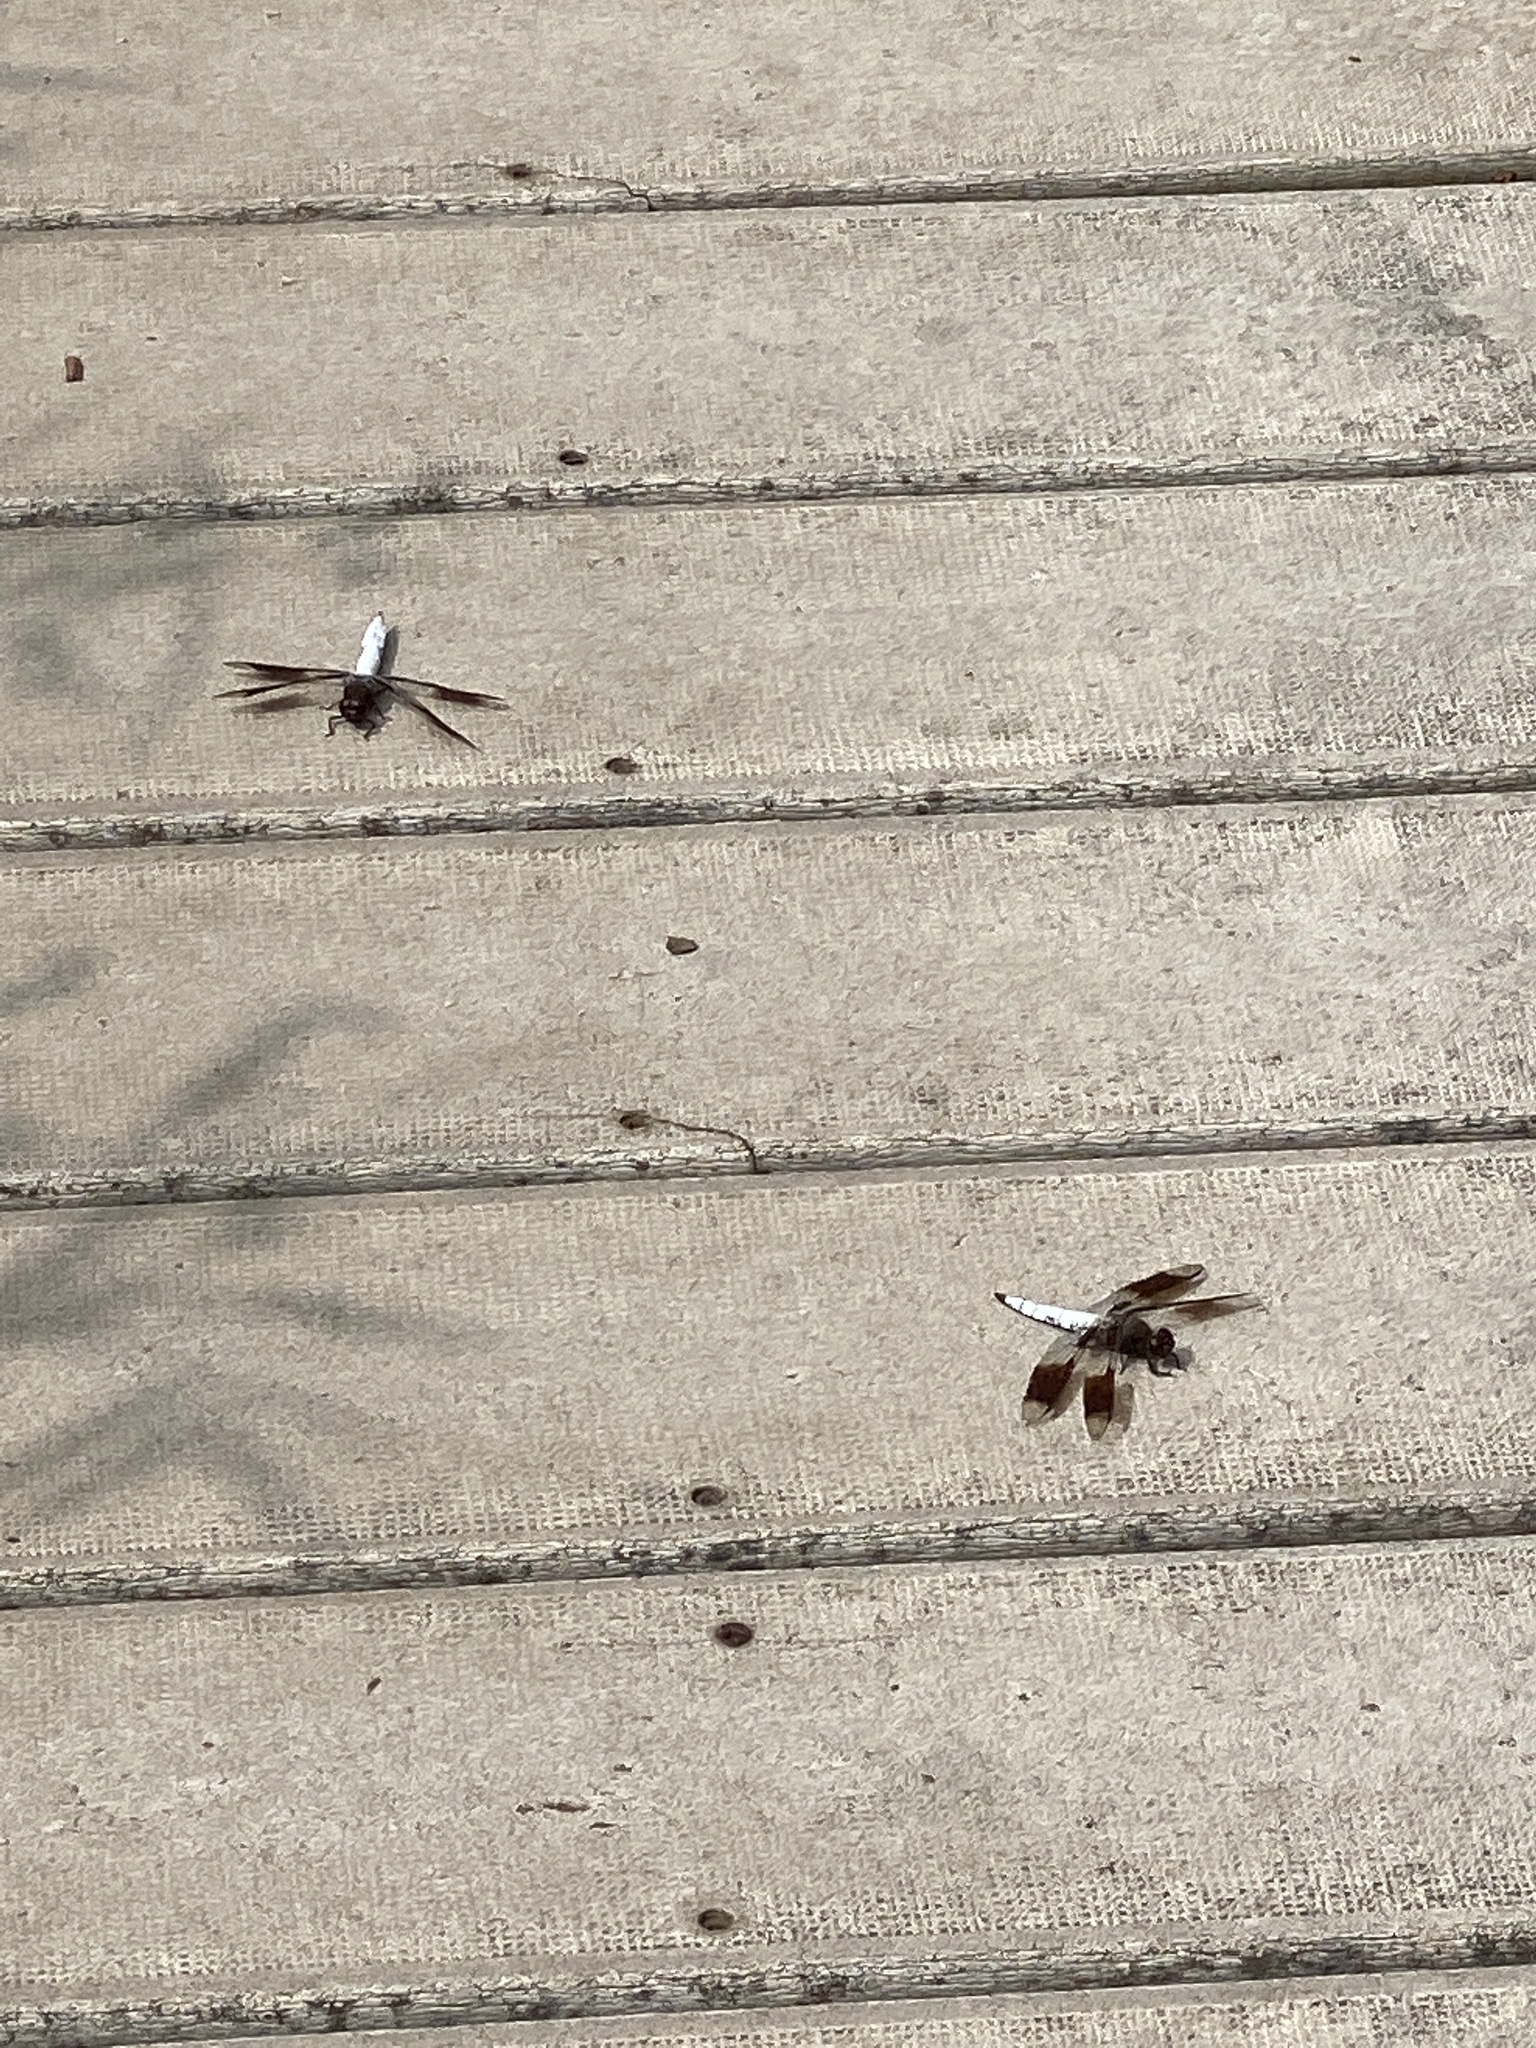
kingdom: Animalia
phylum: Arthropoda
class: Insecta
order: Odonata
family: Libellulidae
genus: Plathemis
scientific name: Plathemis lydia
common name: Common whitetail
